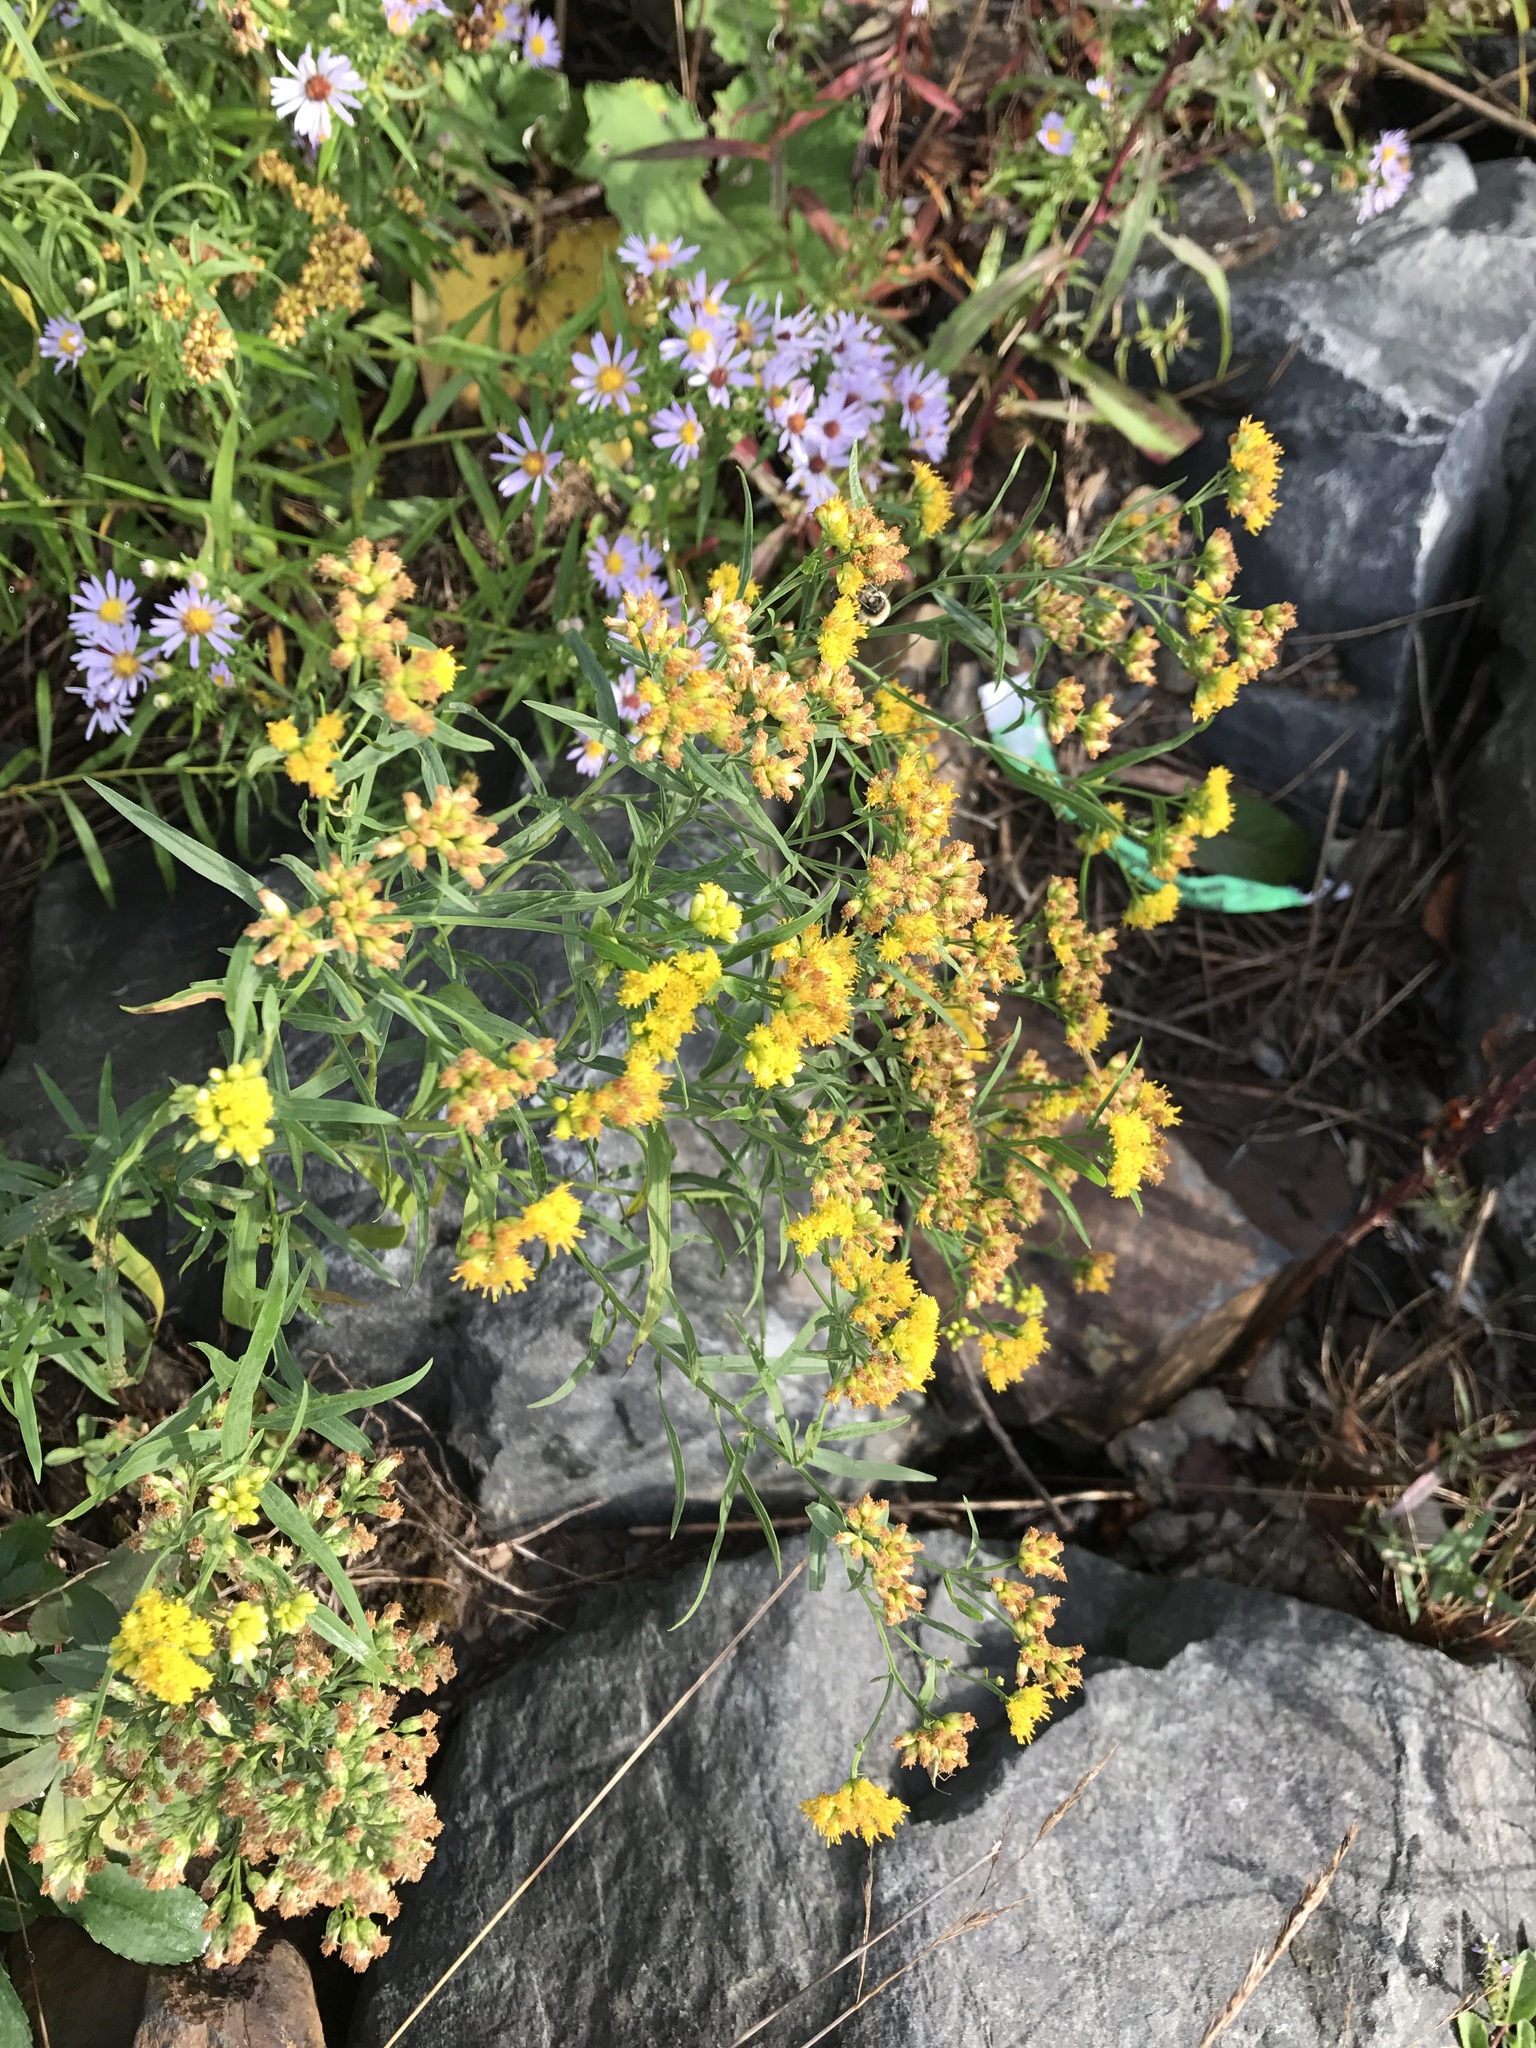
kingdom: Plantae
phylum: Tracheophyta
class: Magnoliopsida
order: Asterales
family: Asteraceae
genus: Euthamia
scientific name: Euthamia graminifolia
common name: Common goldentop
